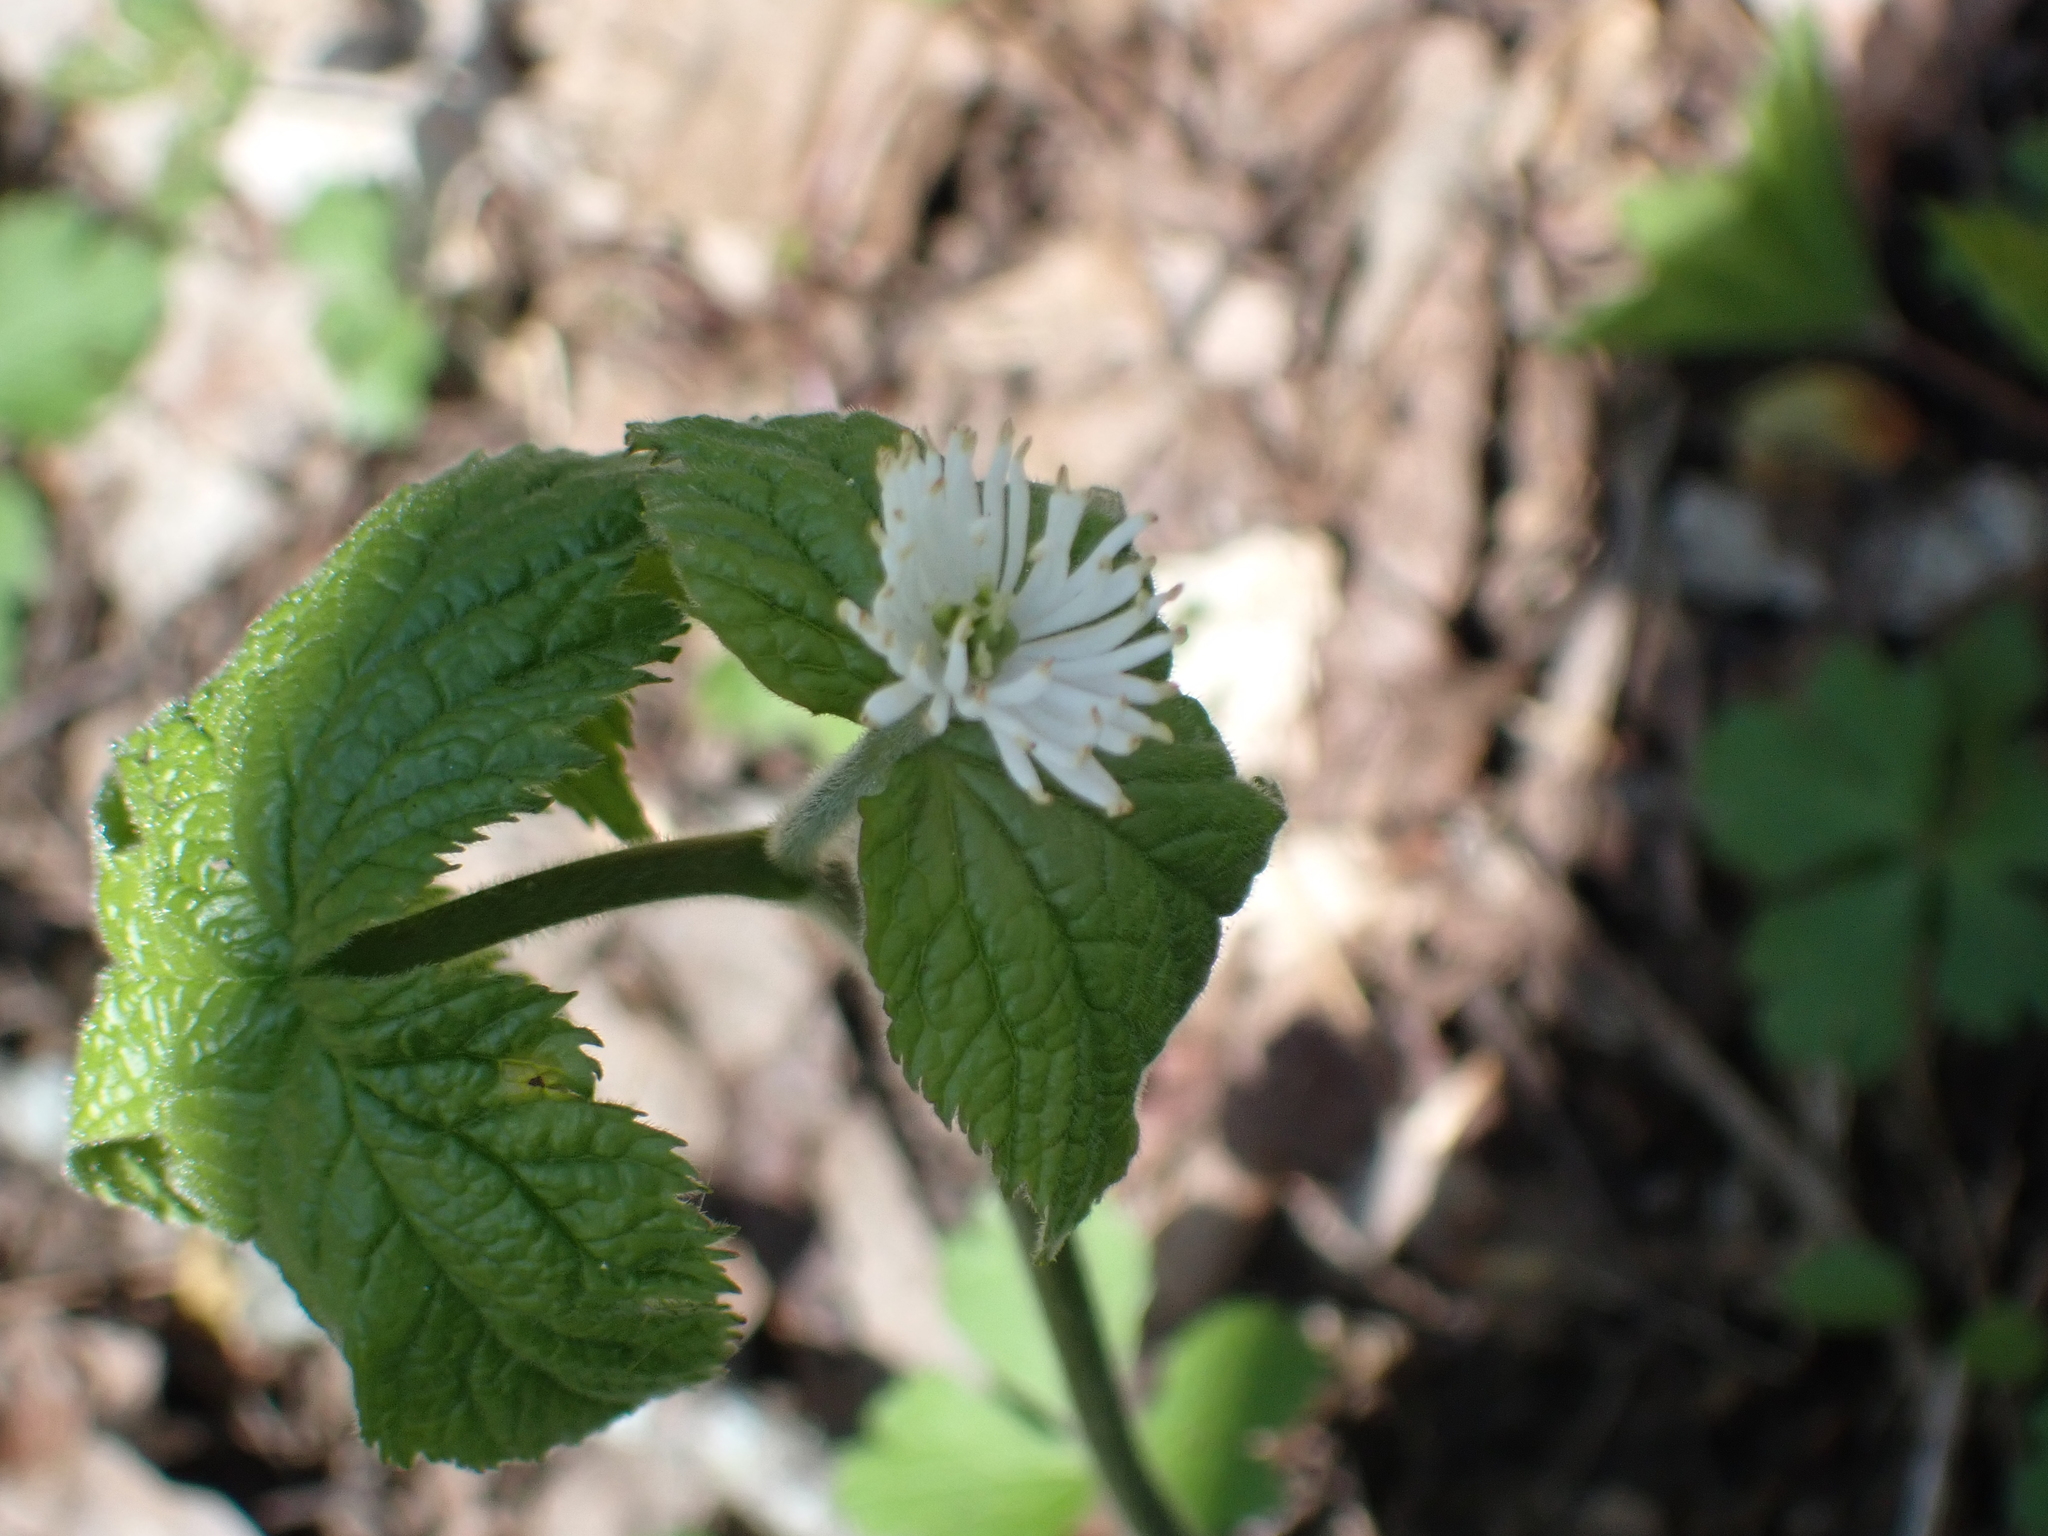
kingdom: Plantae
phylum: Tracheophyta
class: Magnoliopsida
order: Ranunculales
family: Ranunculaceae
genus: Hydrastis
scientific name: Hydrastis canadensis
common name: Goldenseal
